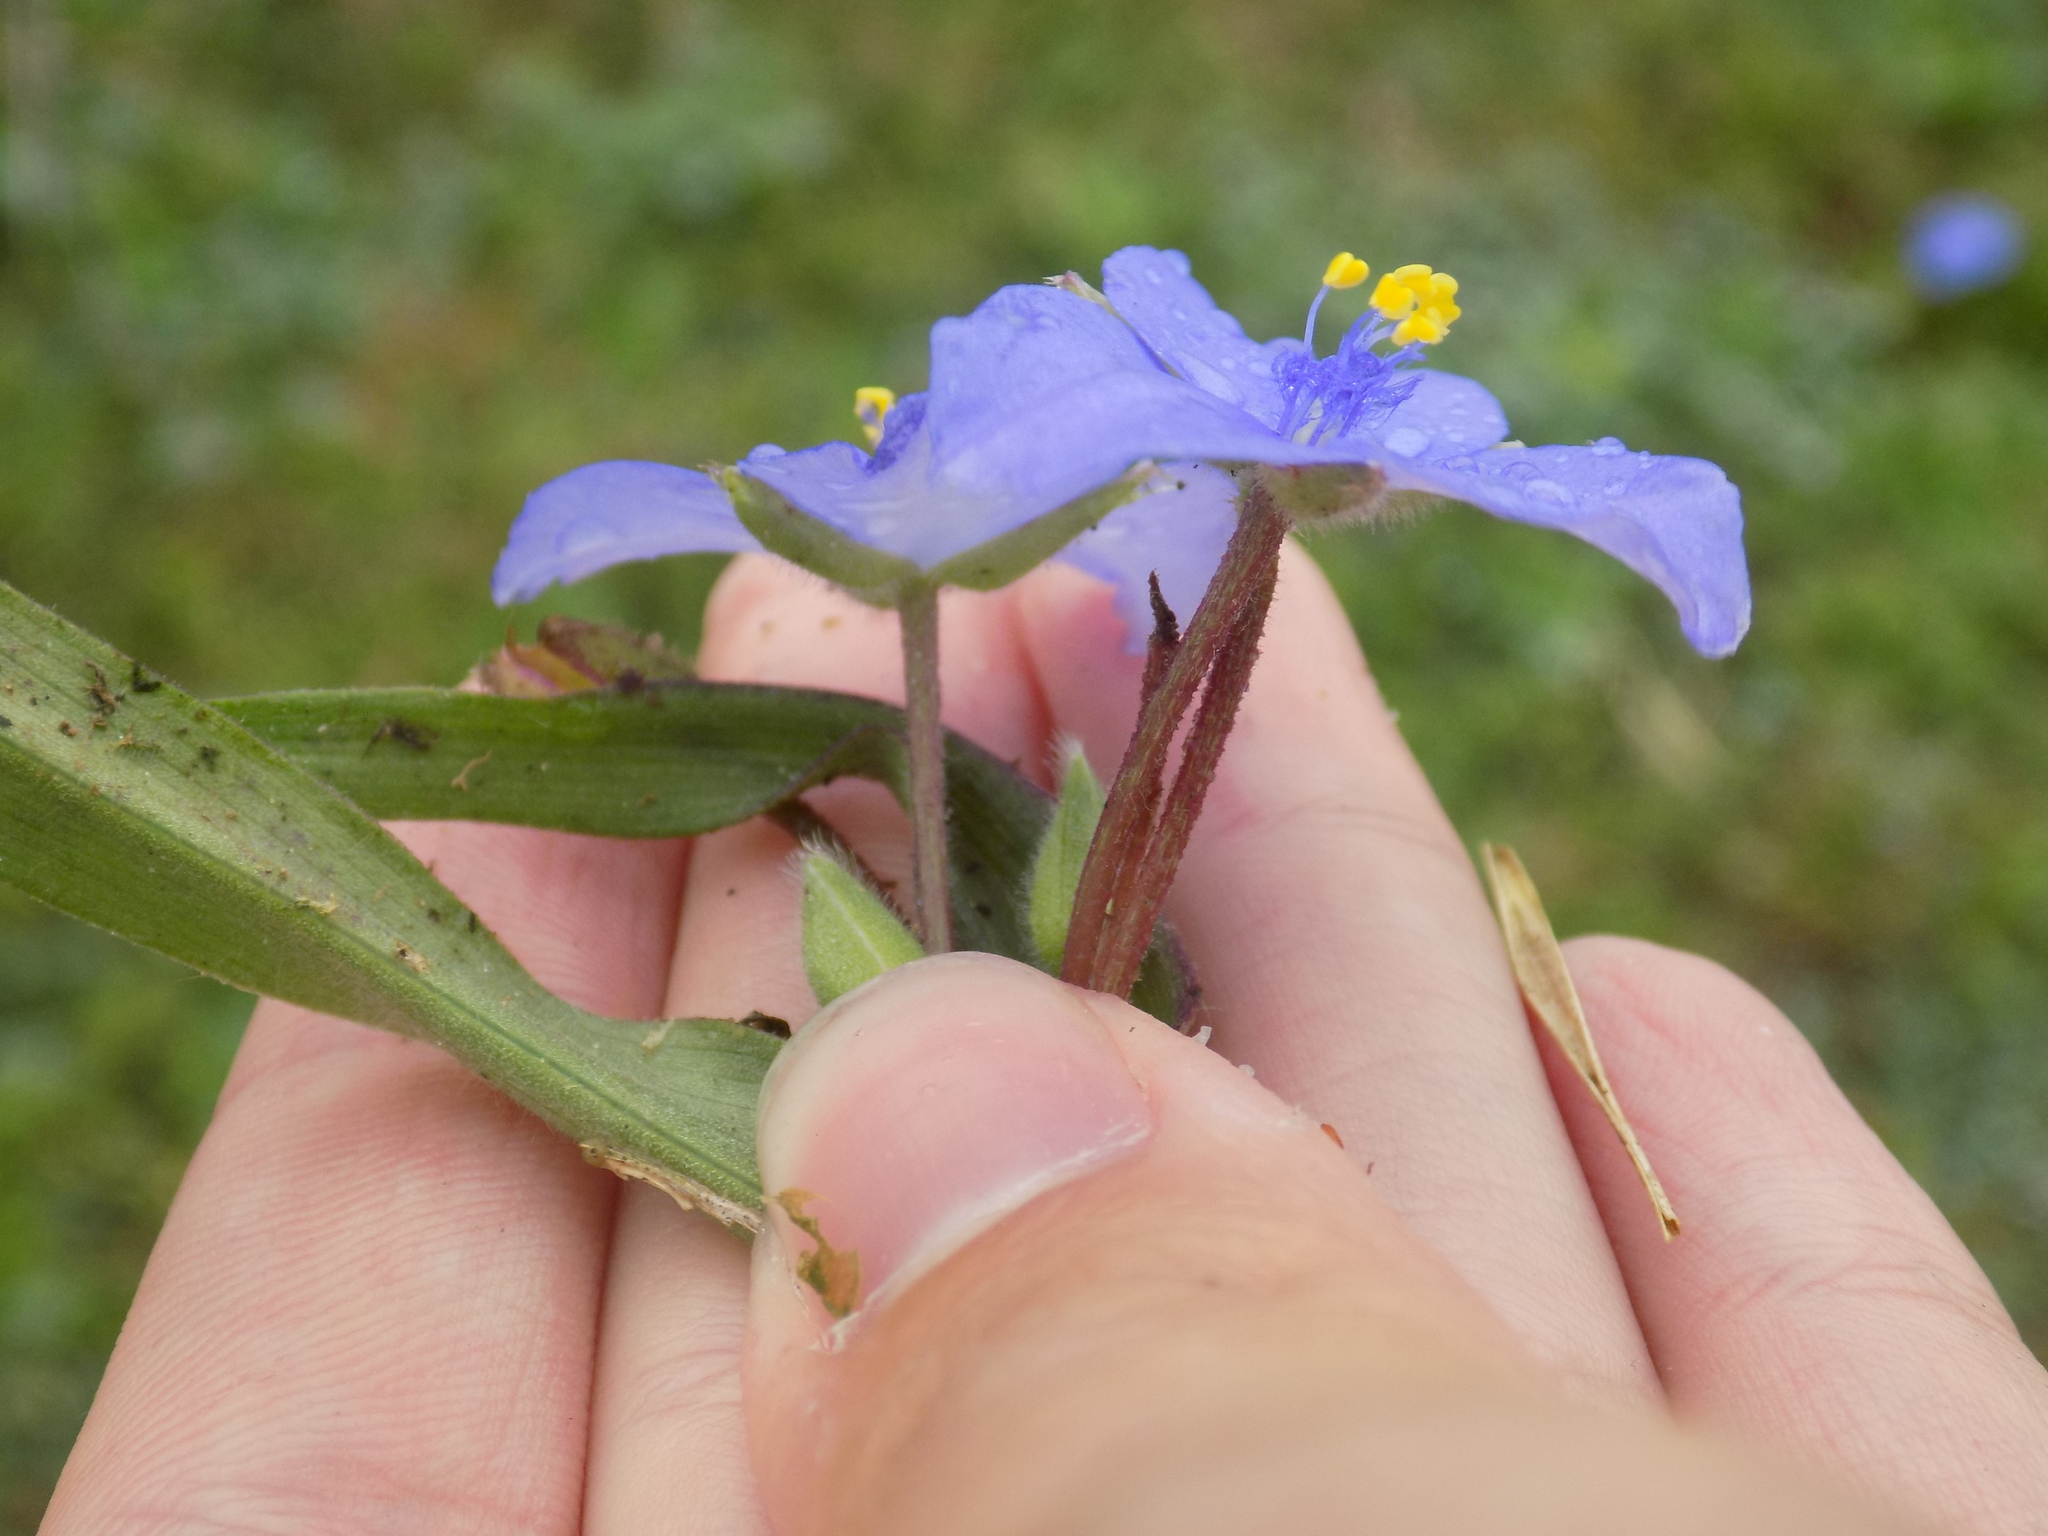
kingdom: Plantae
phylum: Tracheophyta
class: Liliopsida
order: Commelinales
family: Commelinaceae
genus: Tradescantia
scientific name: Tradescantia hirsutiflora
